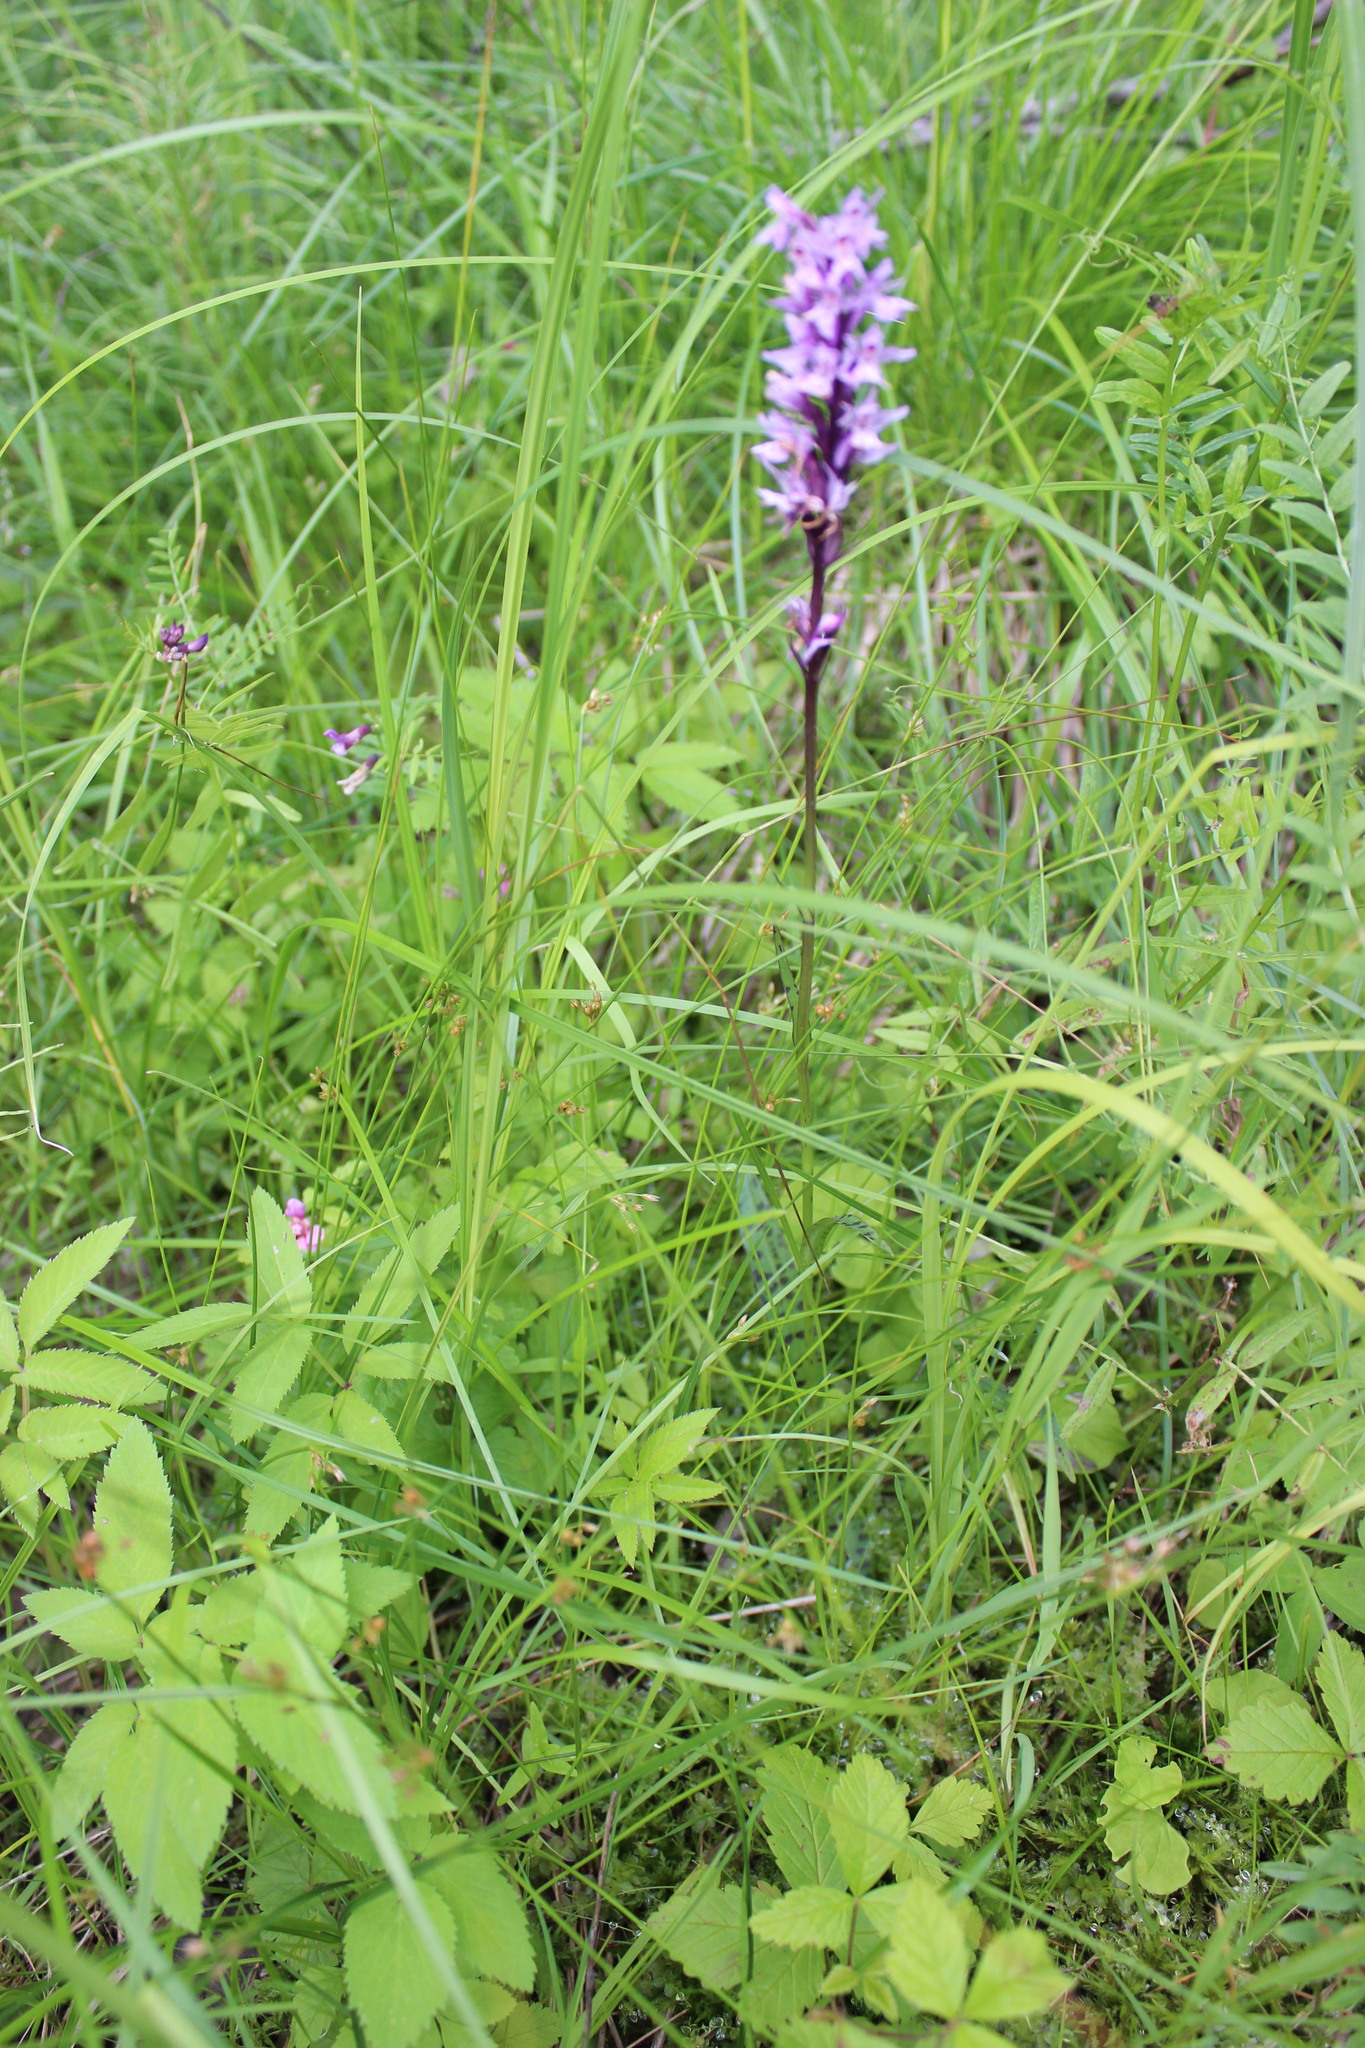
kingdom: Plantae
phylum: Tracheophyta
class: Liliopsida
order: Asparagales
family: Orchidaceae
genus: Dactylorhiza
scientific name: Dactylorhiza maculata
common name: Heath spotted-orchid
